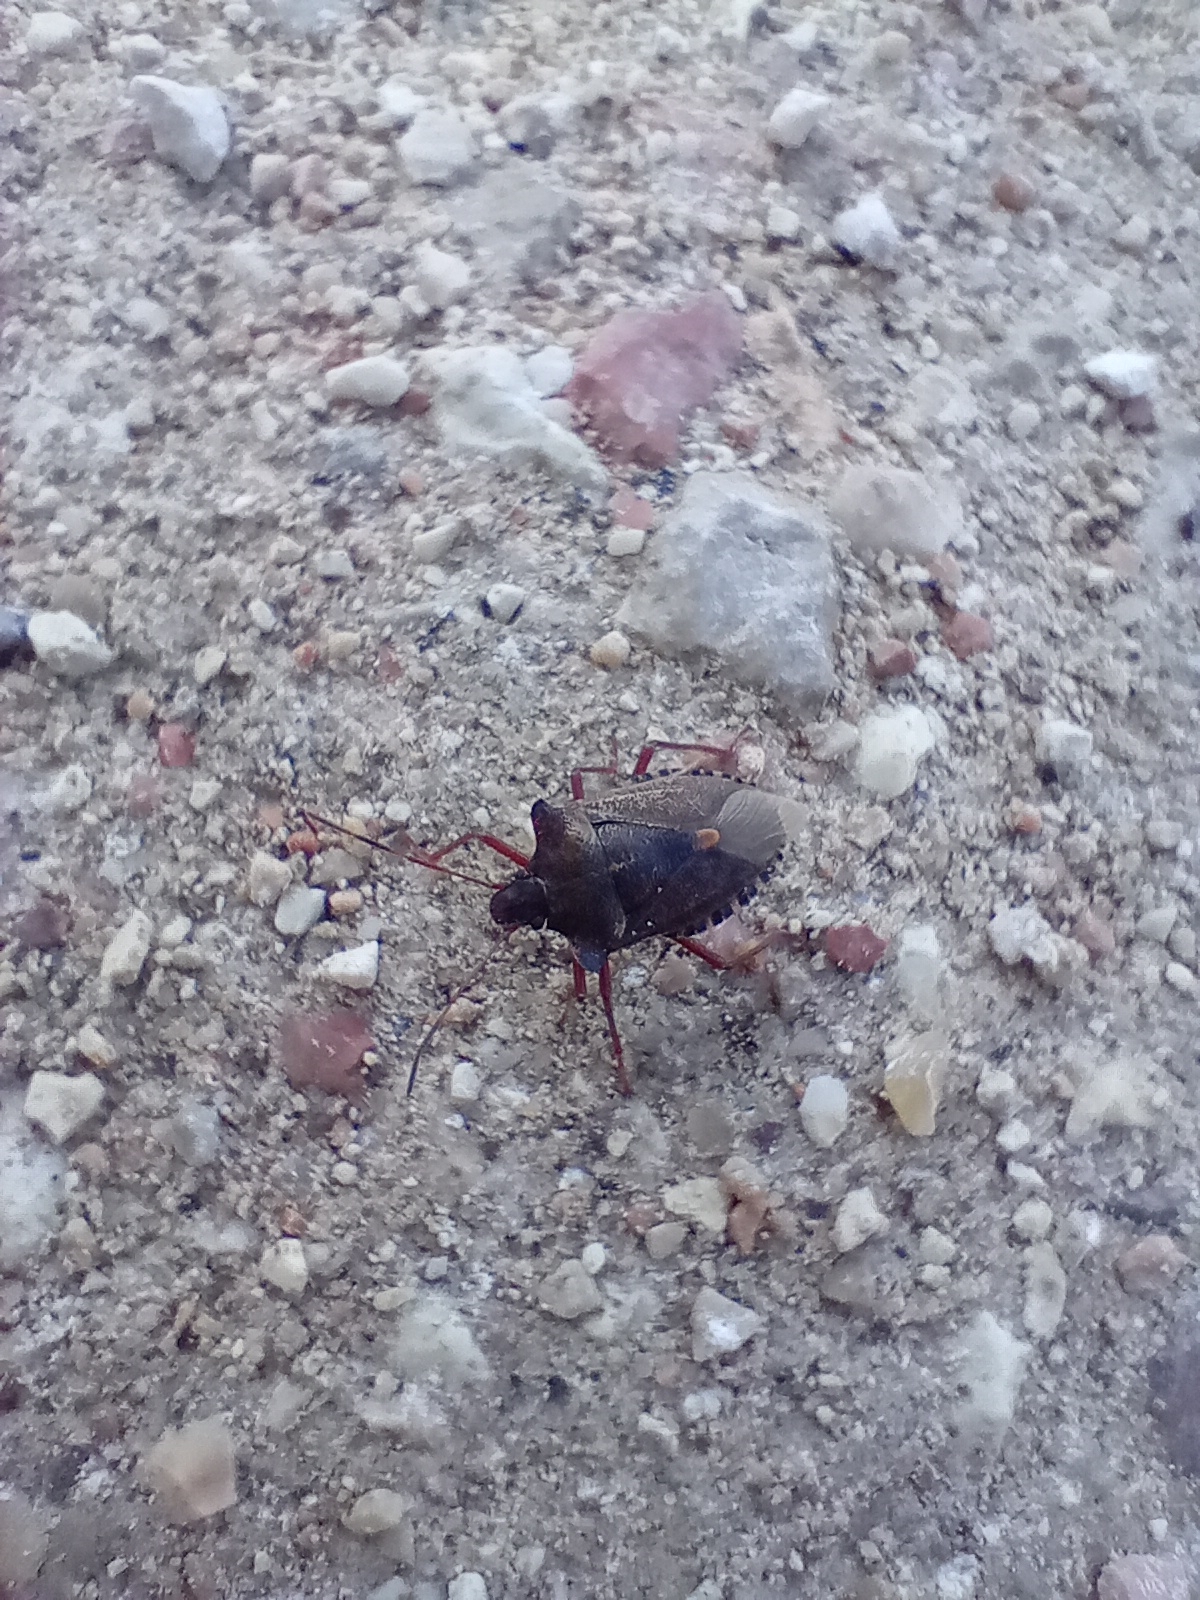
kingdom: Animalia
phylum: Arthropoda
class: Insecta
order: Hemiptera
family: Pentatomidae
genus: Pentatoma
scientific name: Pentatoma rufipes
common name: Forest bug
